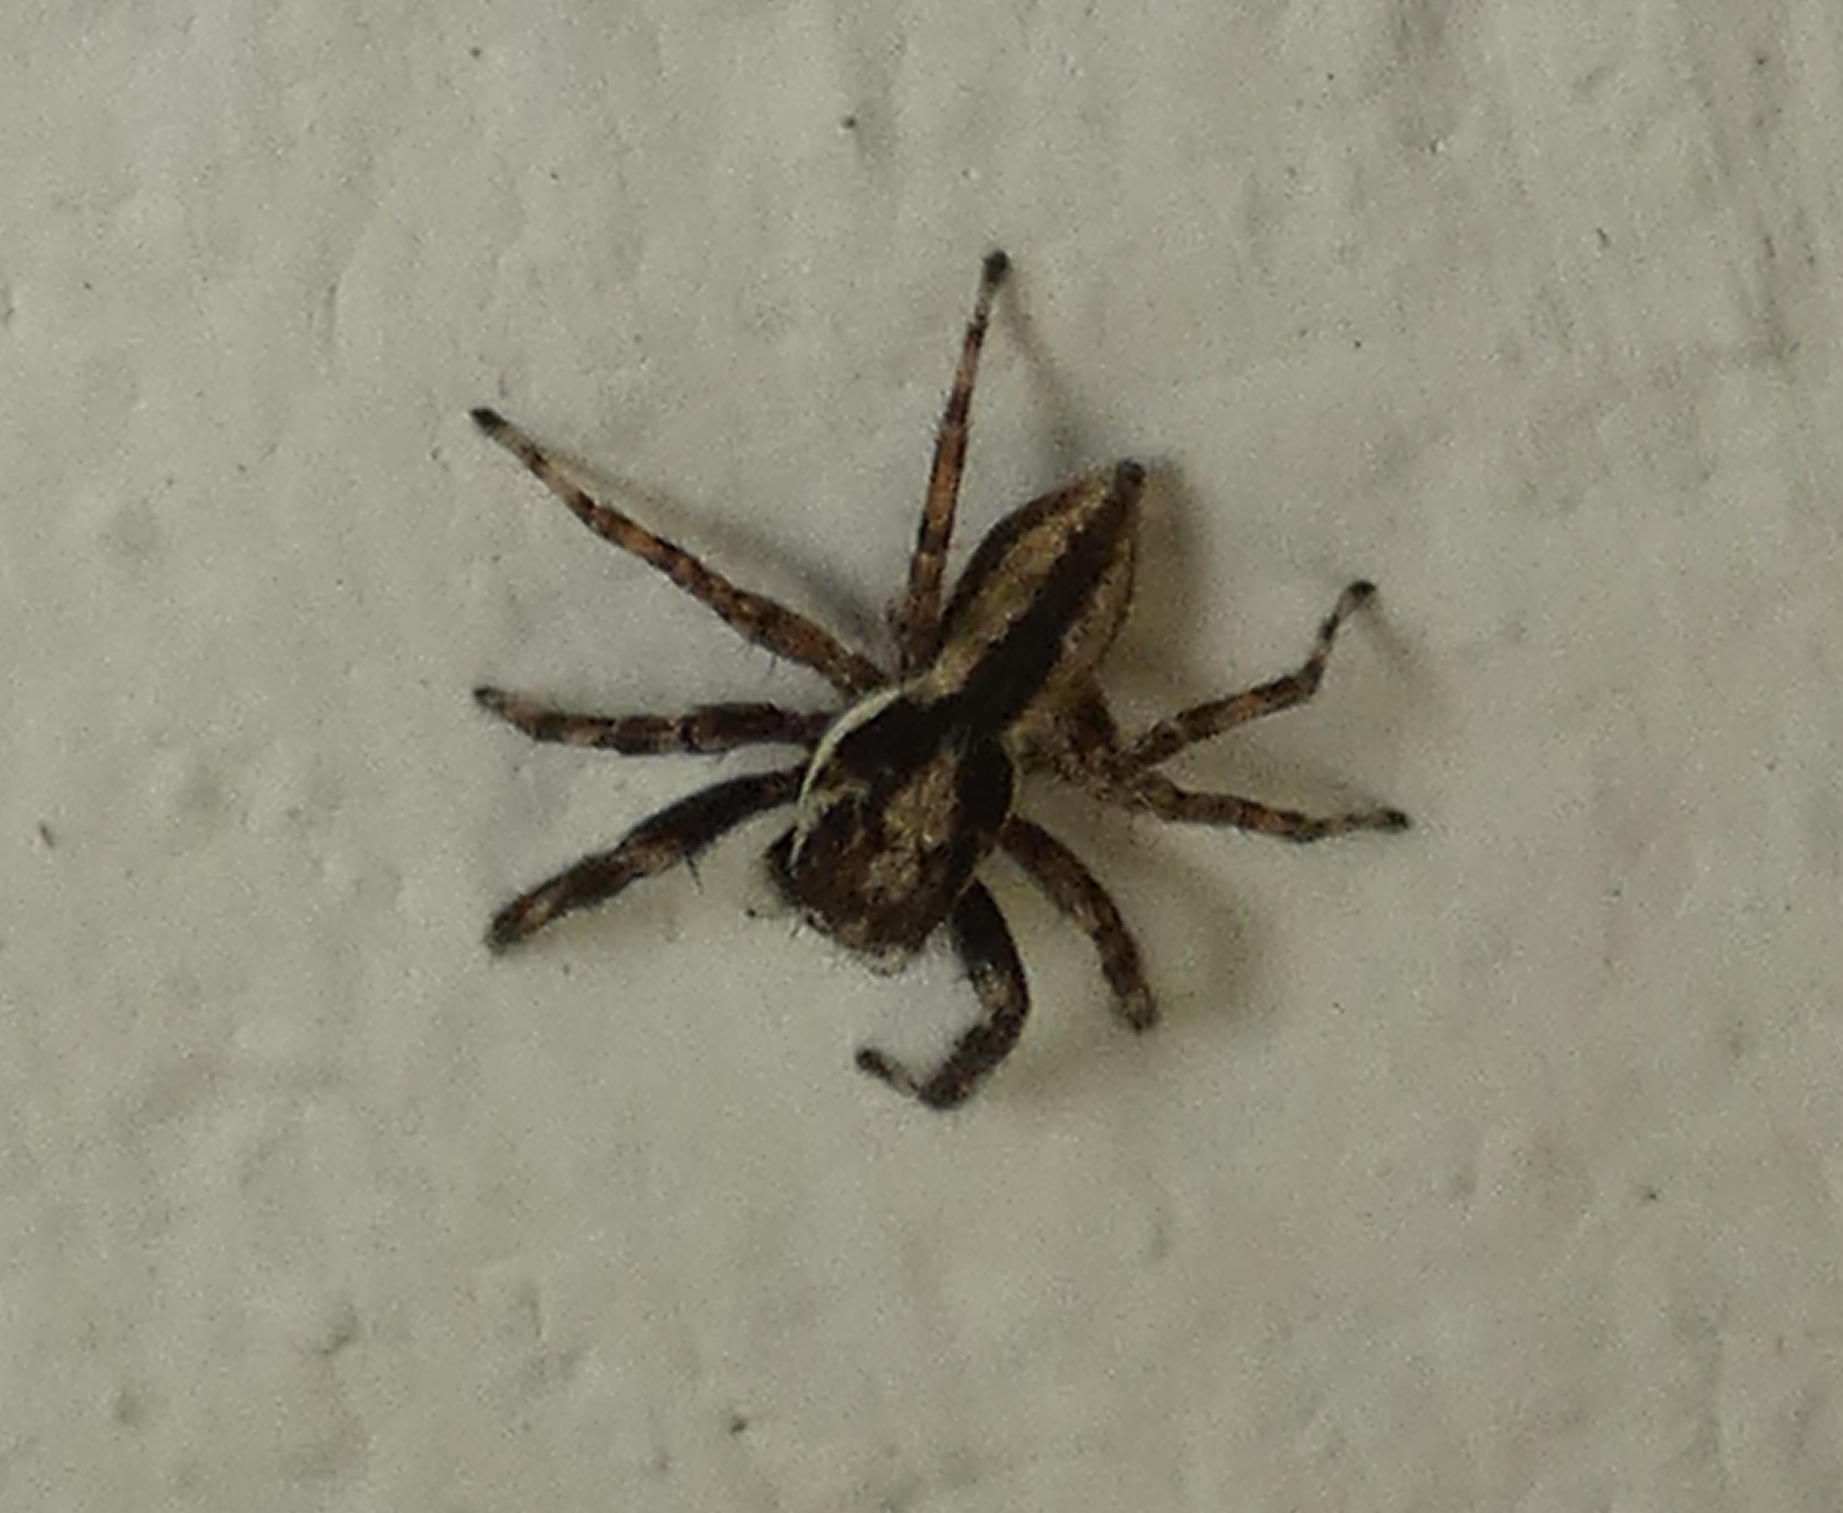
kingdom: Animalia
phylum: Arthropoda
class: Arachnida
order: Araneae
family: Salticidae
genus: Menemerus
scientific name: Menemerus bivittatus
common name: Gray wall jumper
